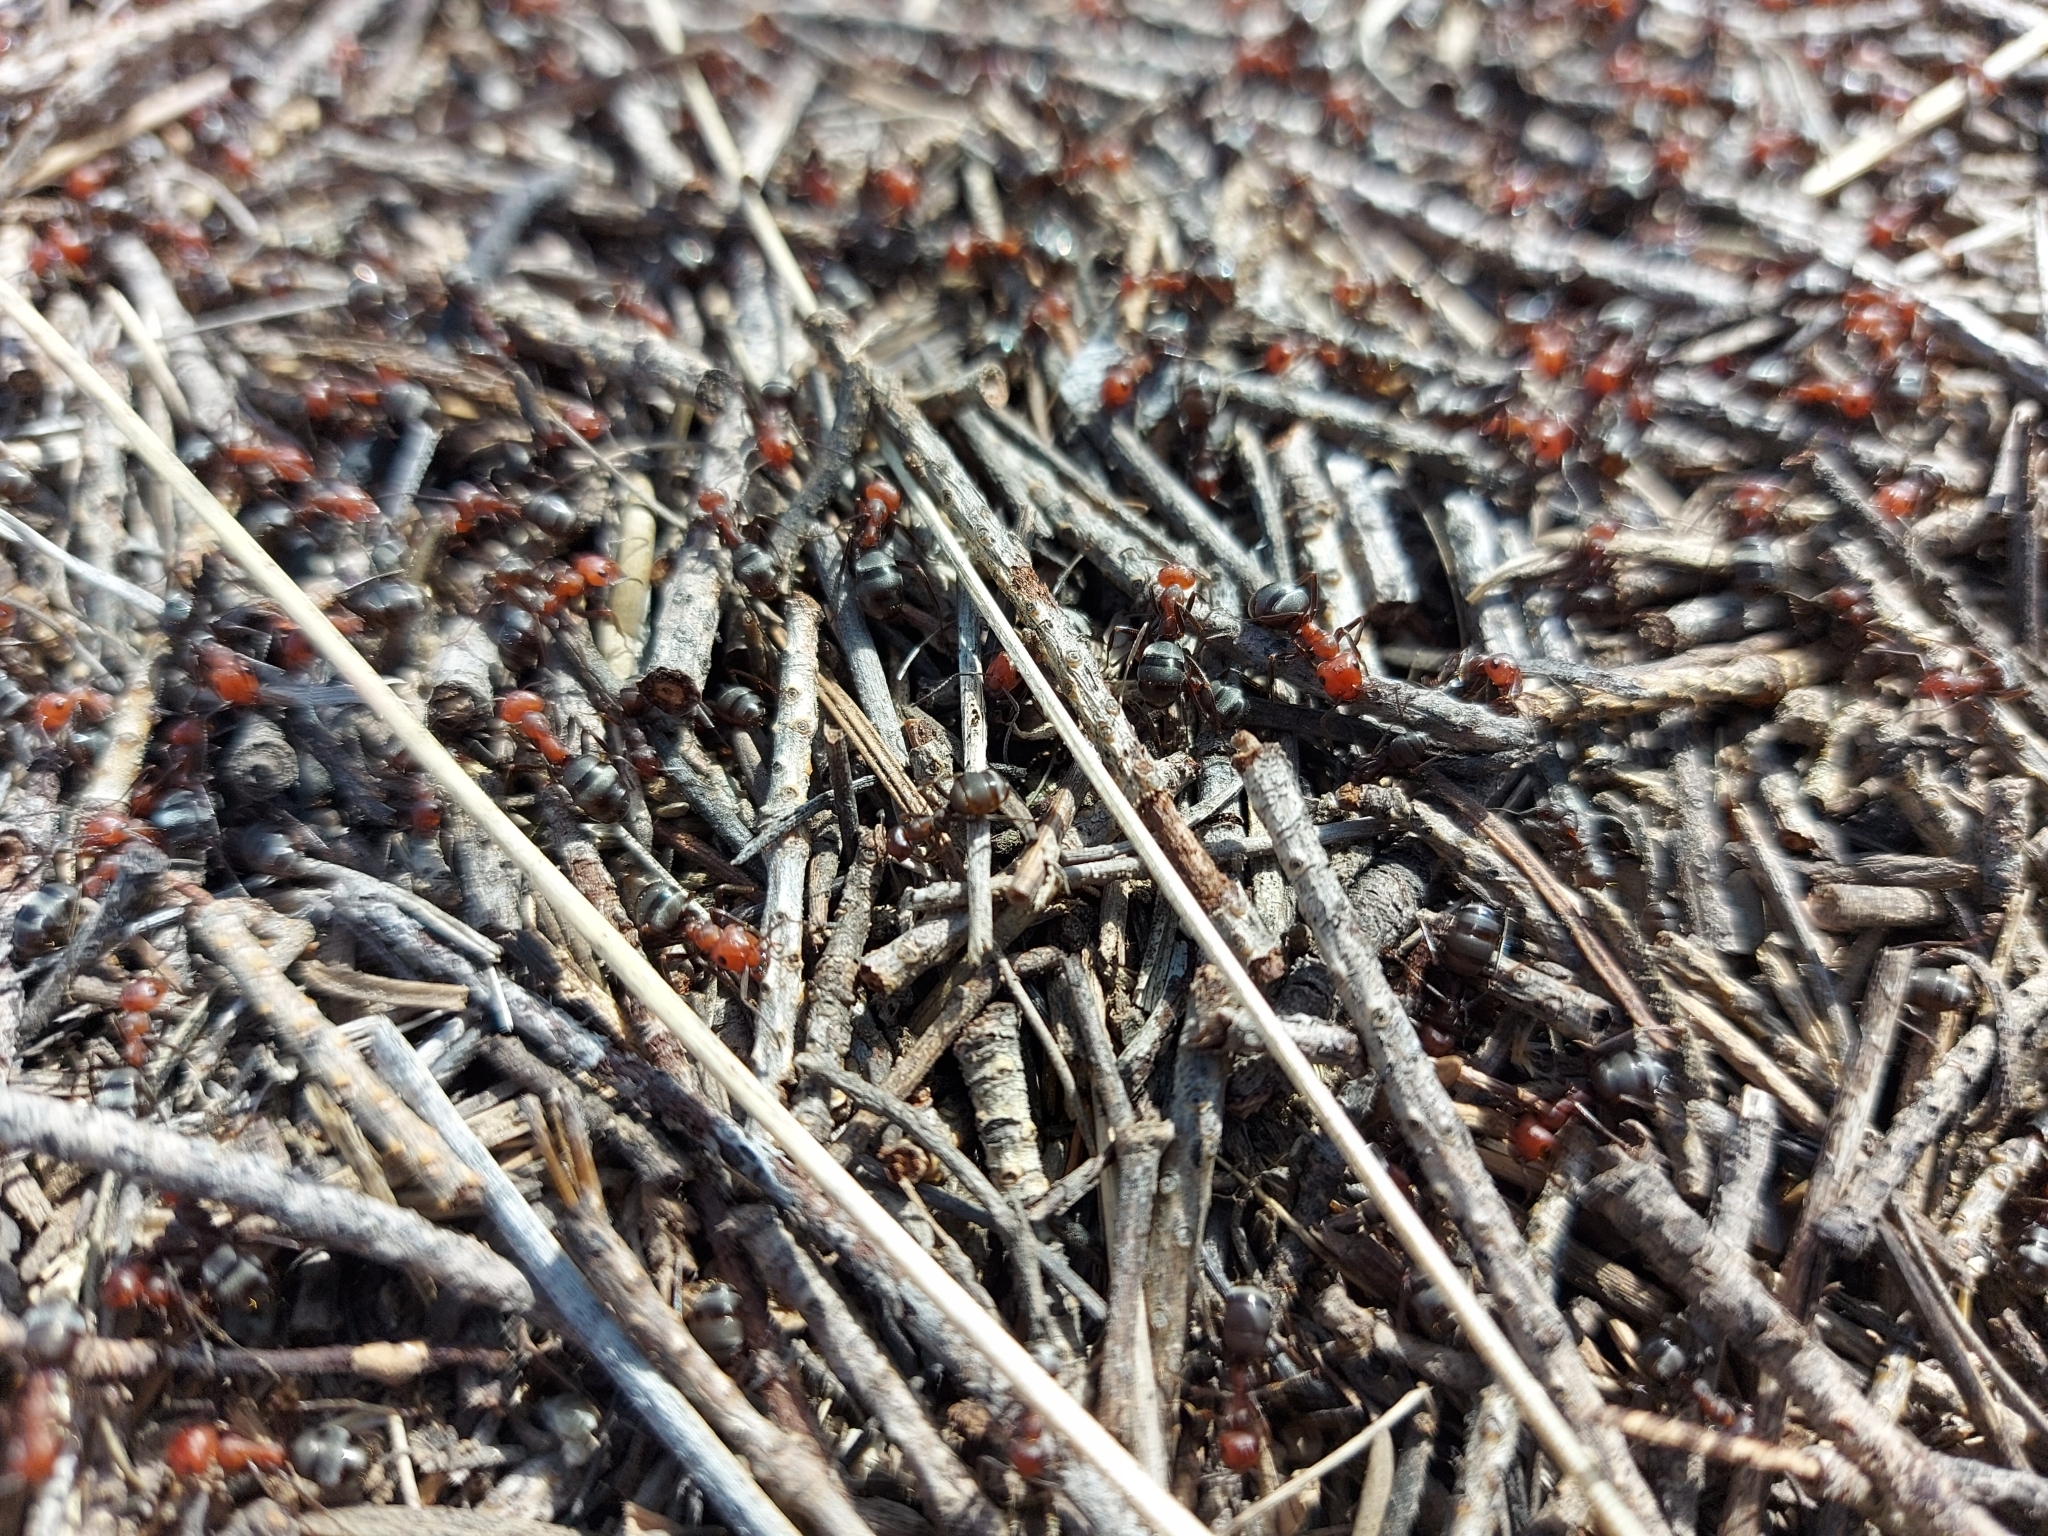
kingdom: Animalia
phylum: Arthropoda
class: Insecta
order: Hymenoptera
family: Formicidae
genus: Formica
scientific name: Formica obscuripes
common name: Western thatching ant
